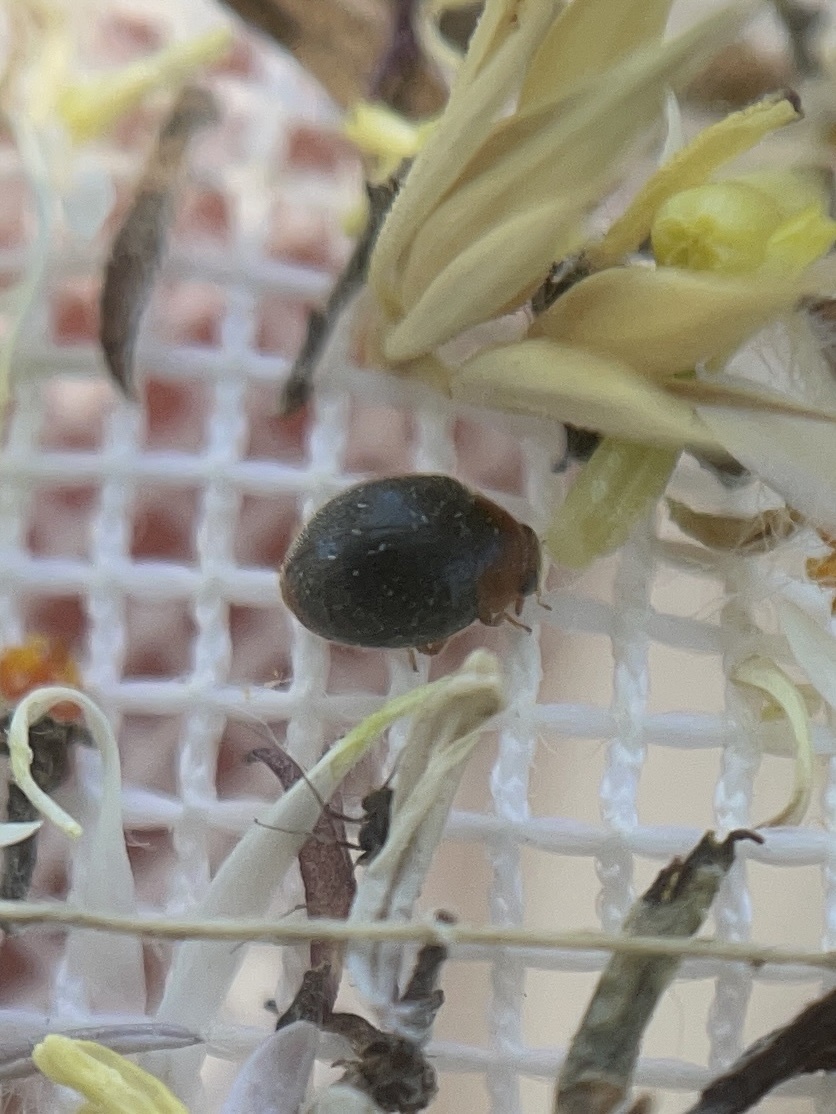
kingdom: Animalia
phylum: Arthropoda
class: Insecta
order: Coleoptera
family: Coccinellidae
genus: Cryptolaemus
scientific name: Cryptolaemus montrouzieri
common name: Mealybug destroyer
